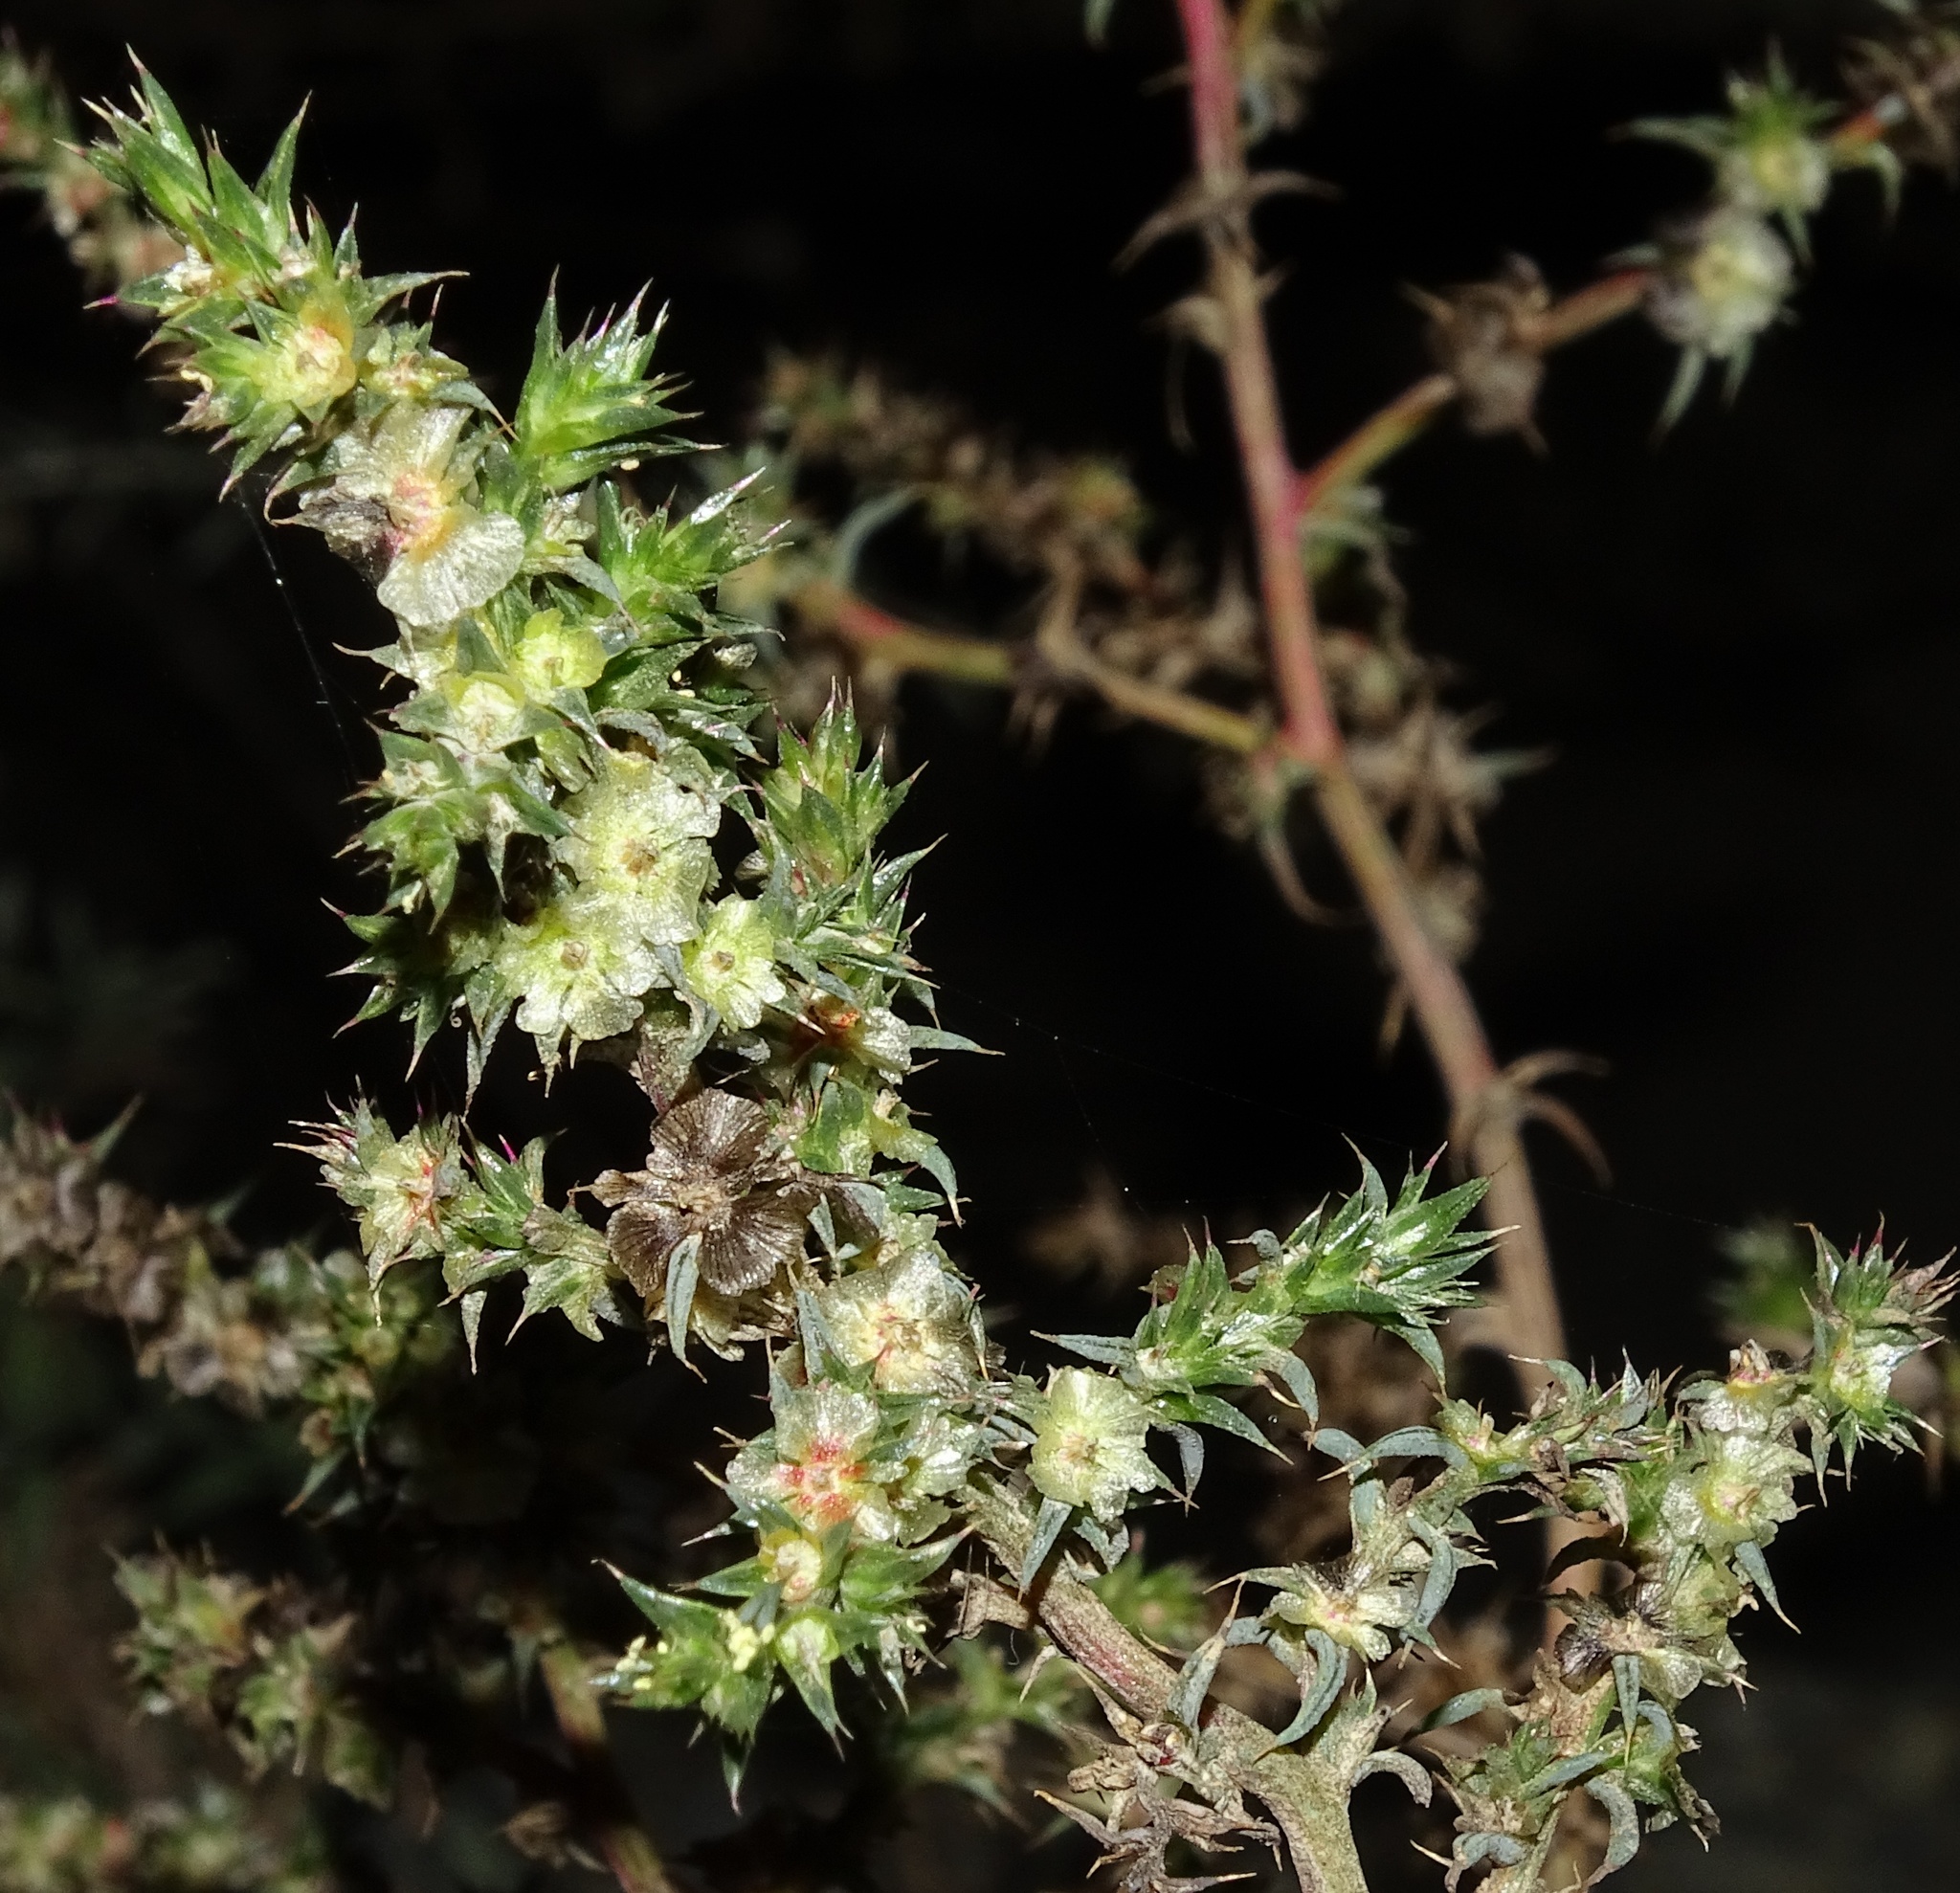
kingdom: Plantae
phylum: Tracheophyta
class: Magnoliopsida
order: Caryophyllales
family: Amaranthaceae
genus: Salsola
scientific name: Salsola australis
